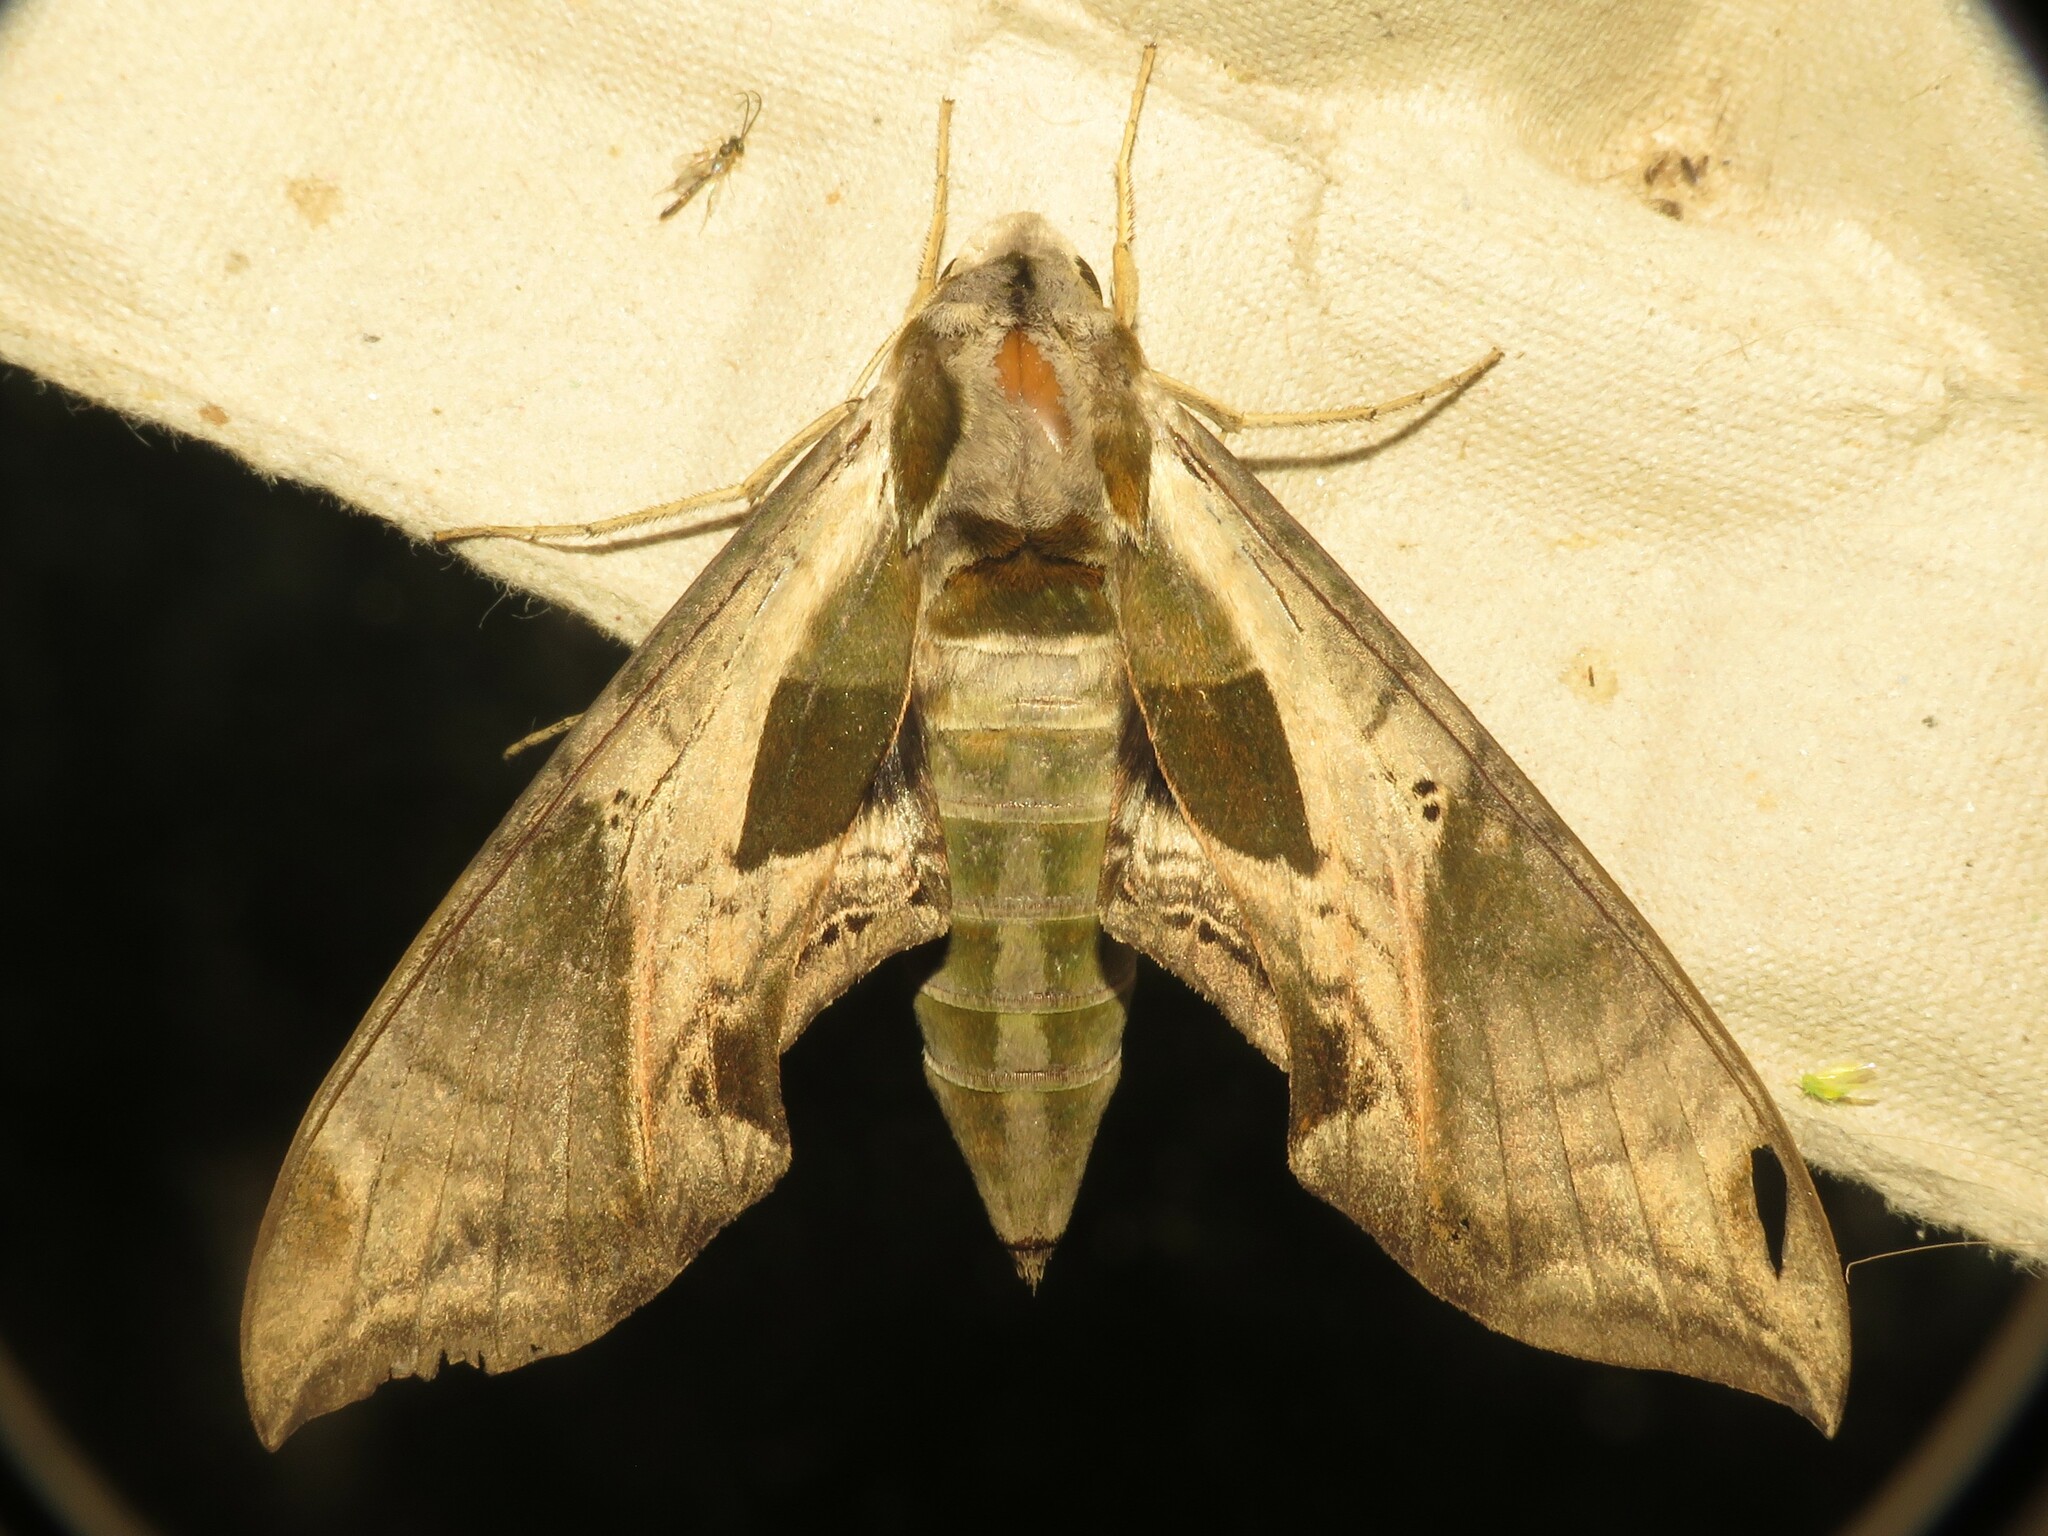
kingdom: Animalia
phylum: Arthropoda
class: Insecta
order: Lepidoptera
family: Sphingidae
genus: Eumorpha
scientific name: Eumorpha pandorus
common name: Pandora sphinx
